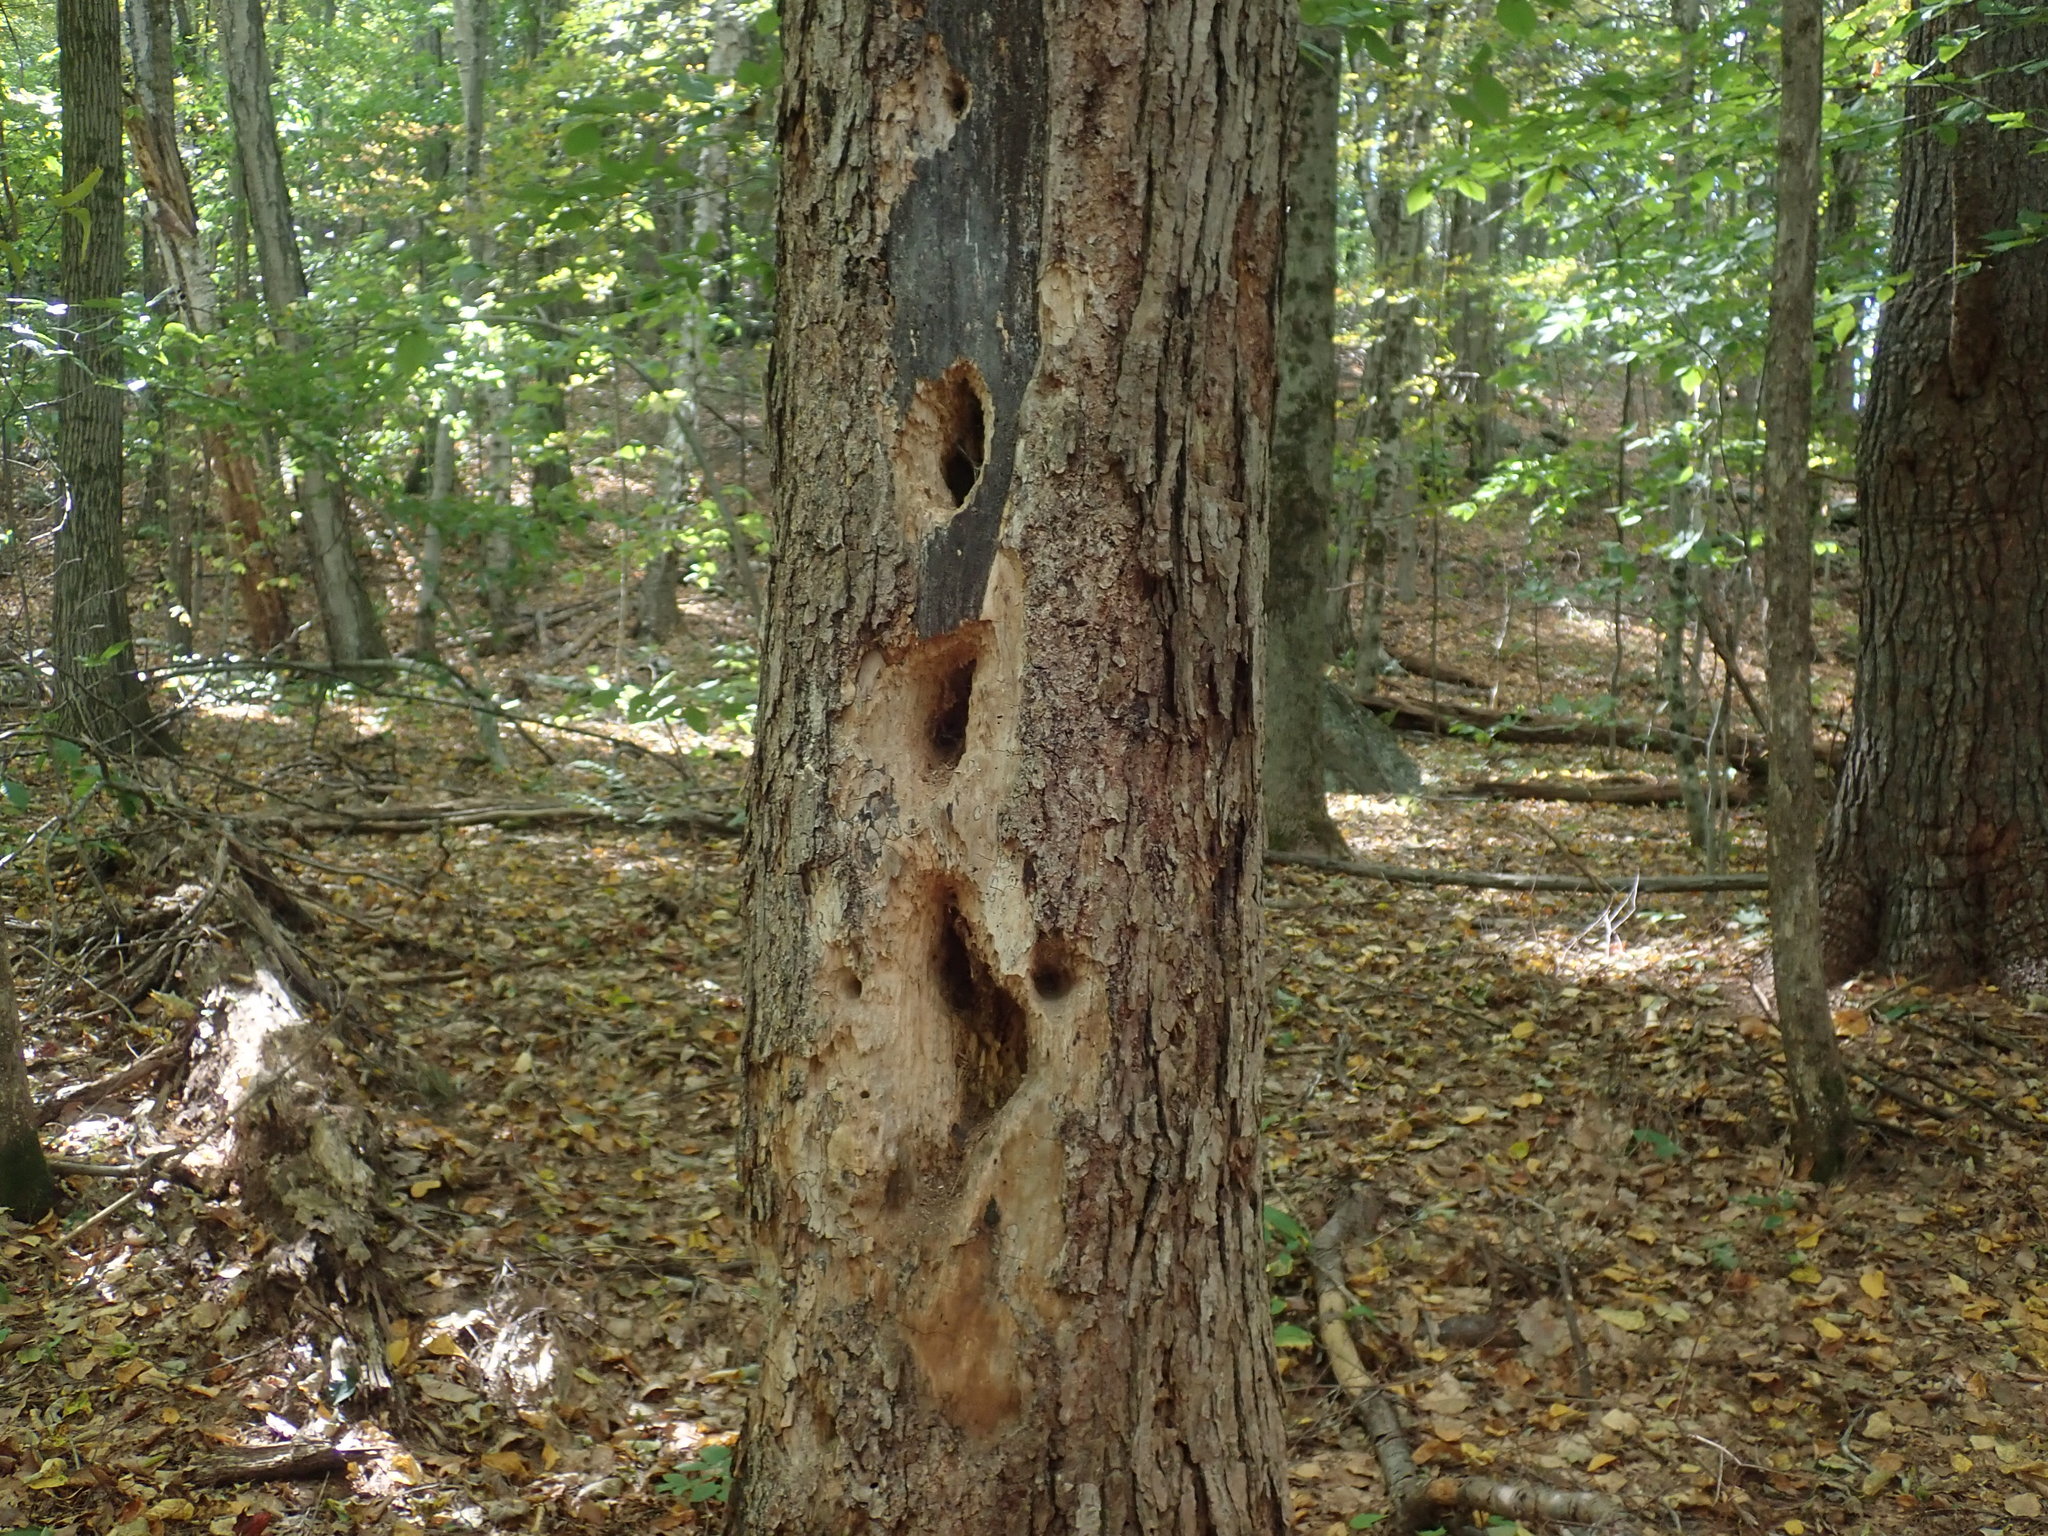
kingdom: Animalia
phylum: Chordata
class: Aves
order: Piciformes
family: Picidae
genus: Dryocopus
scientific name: Dryocopus pileatus
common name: Pileated woodpecker
